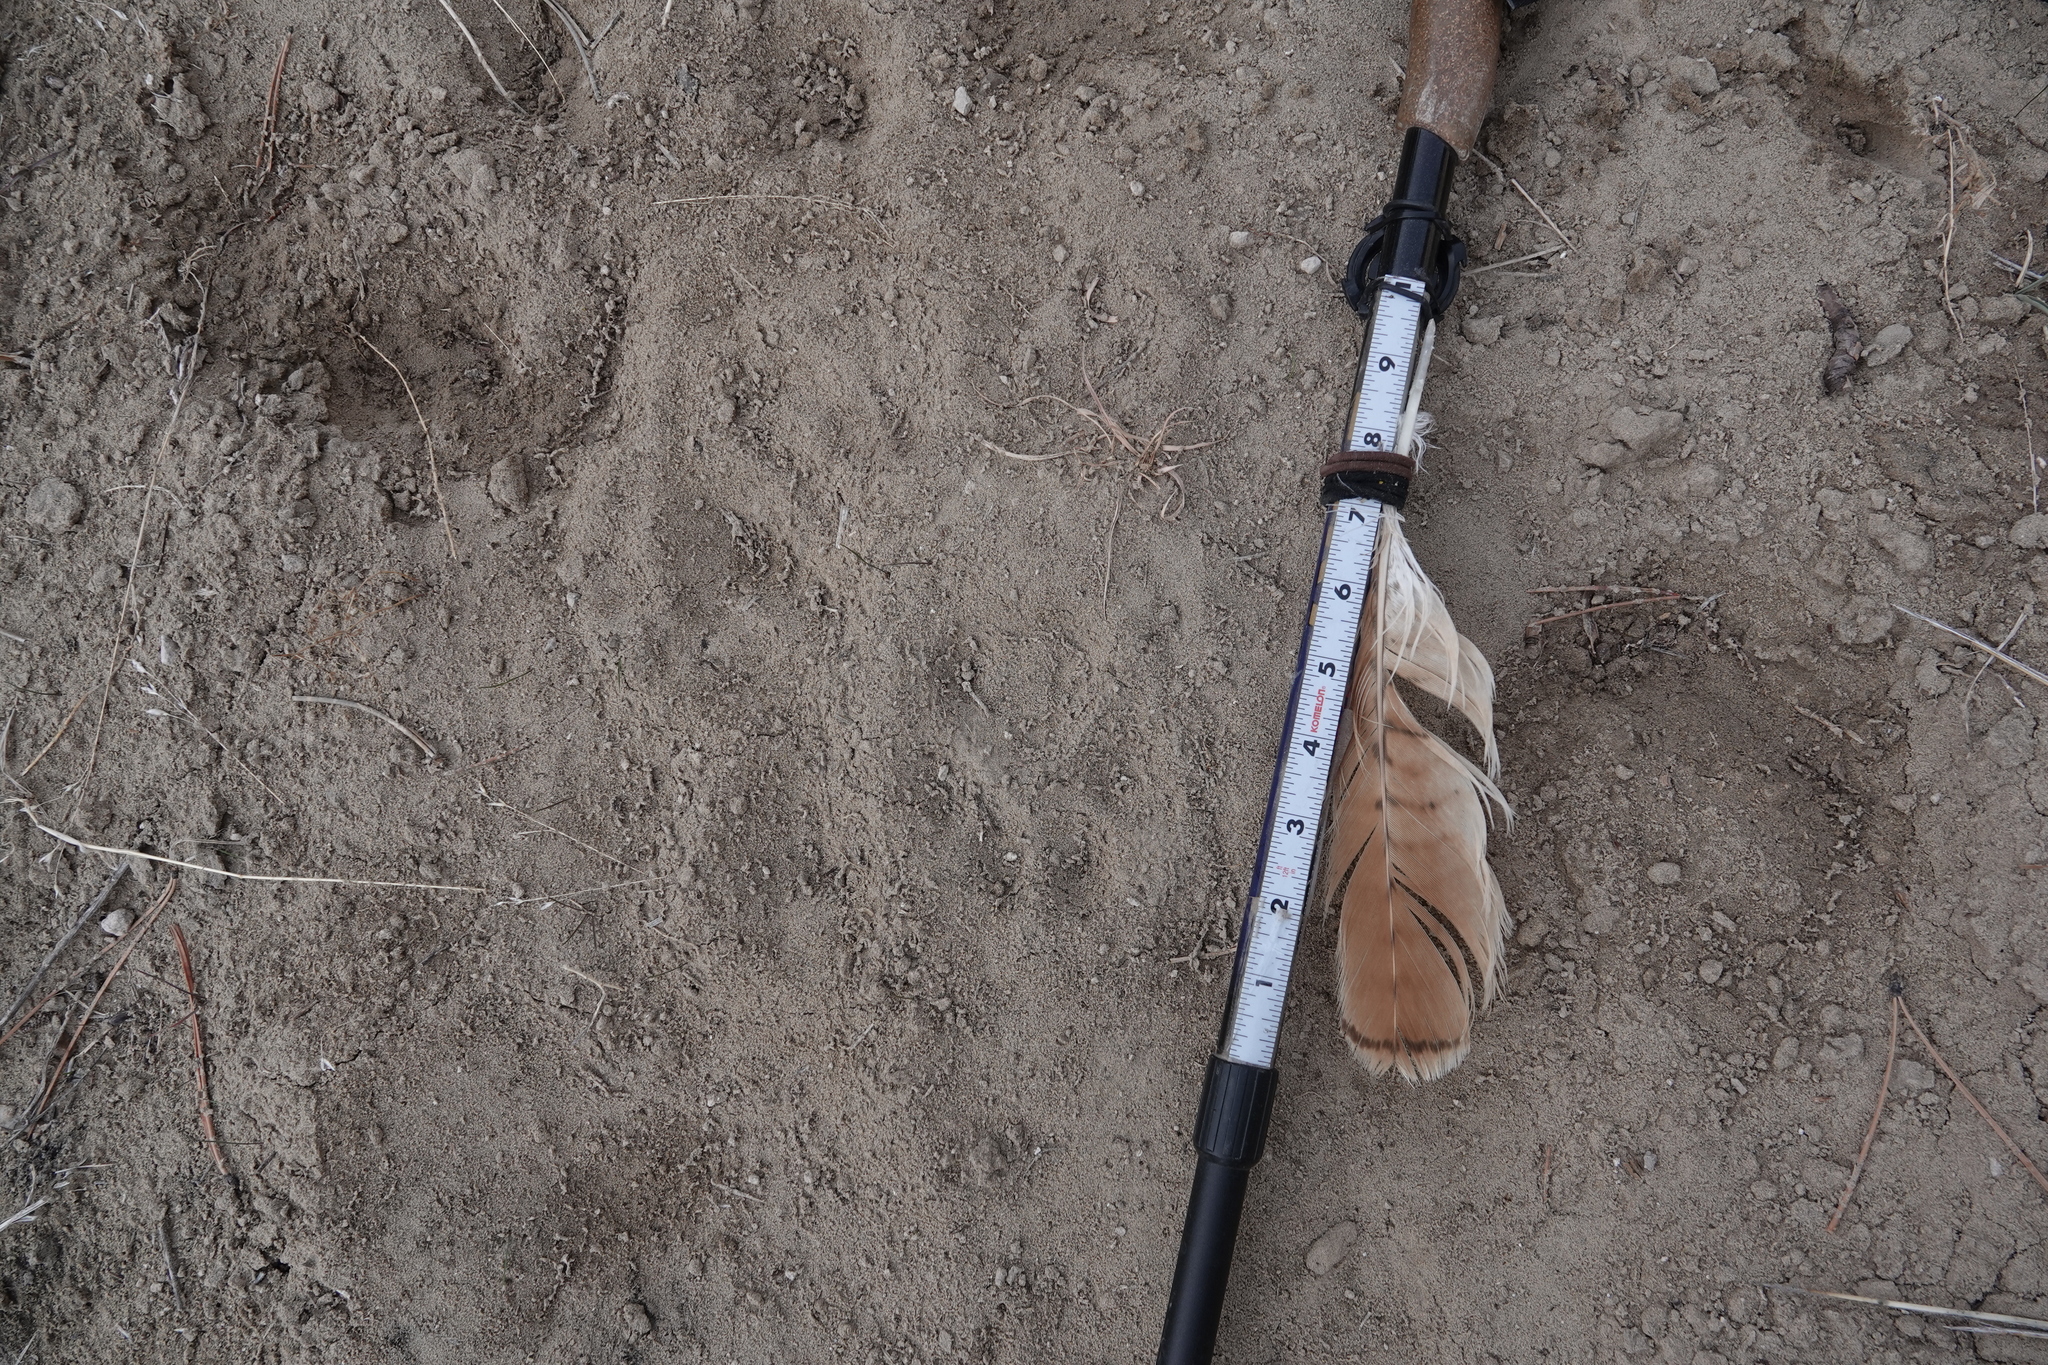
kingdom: Animalia
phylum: Chordata
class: Mammalia
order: Carnivora
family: Felidae
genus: Puma
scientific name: Puma concolor
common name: Puma
